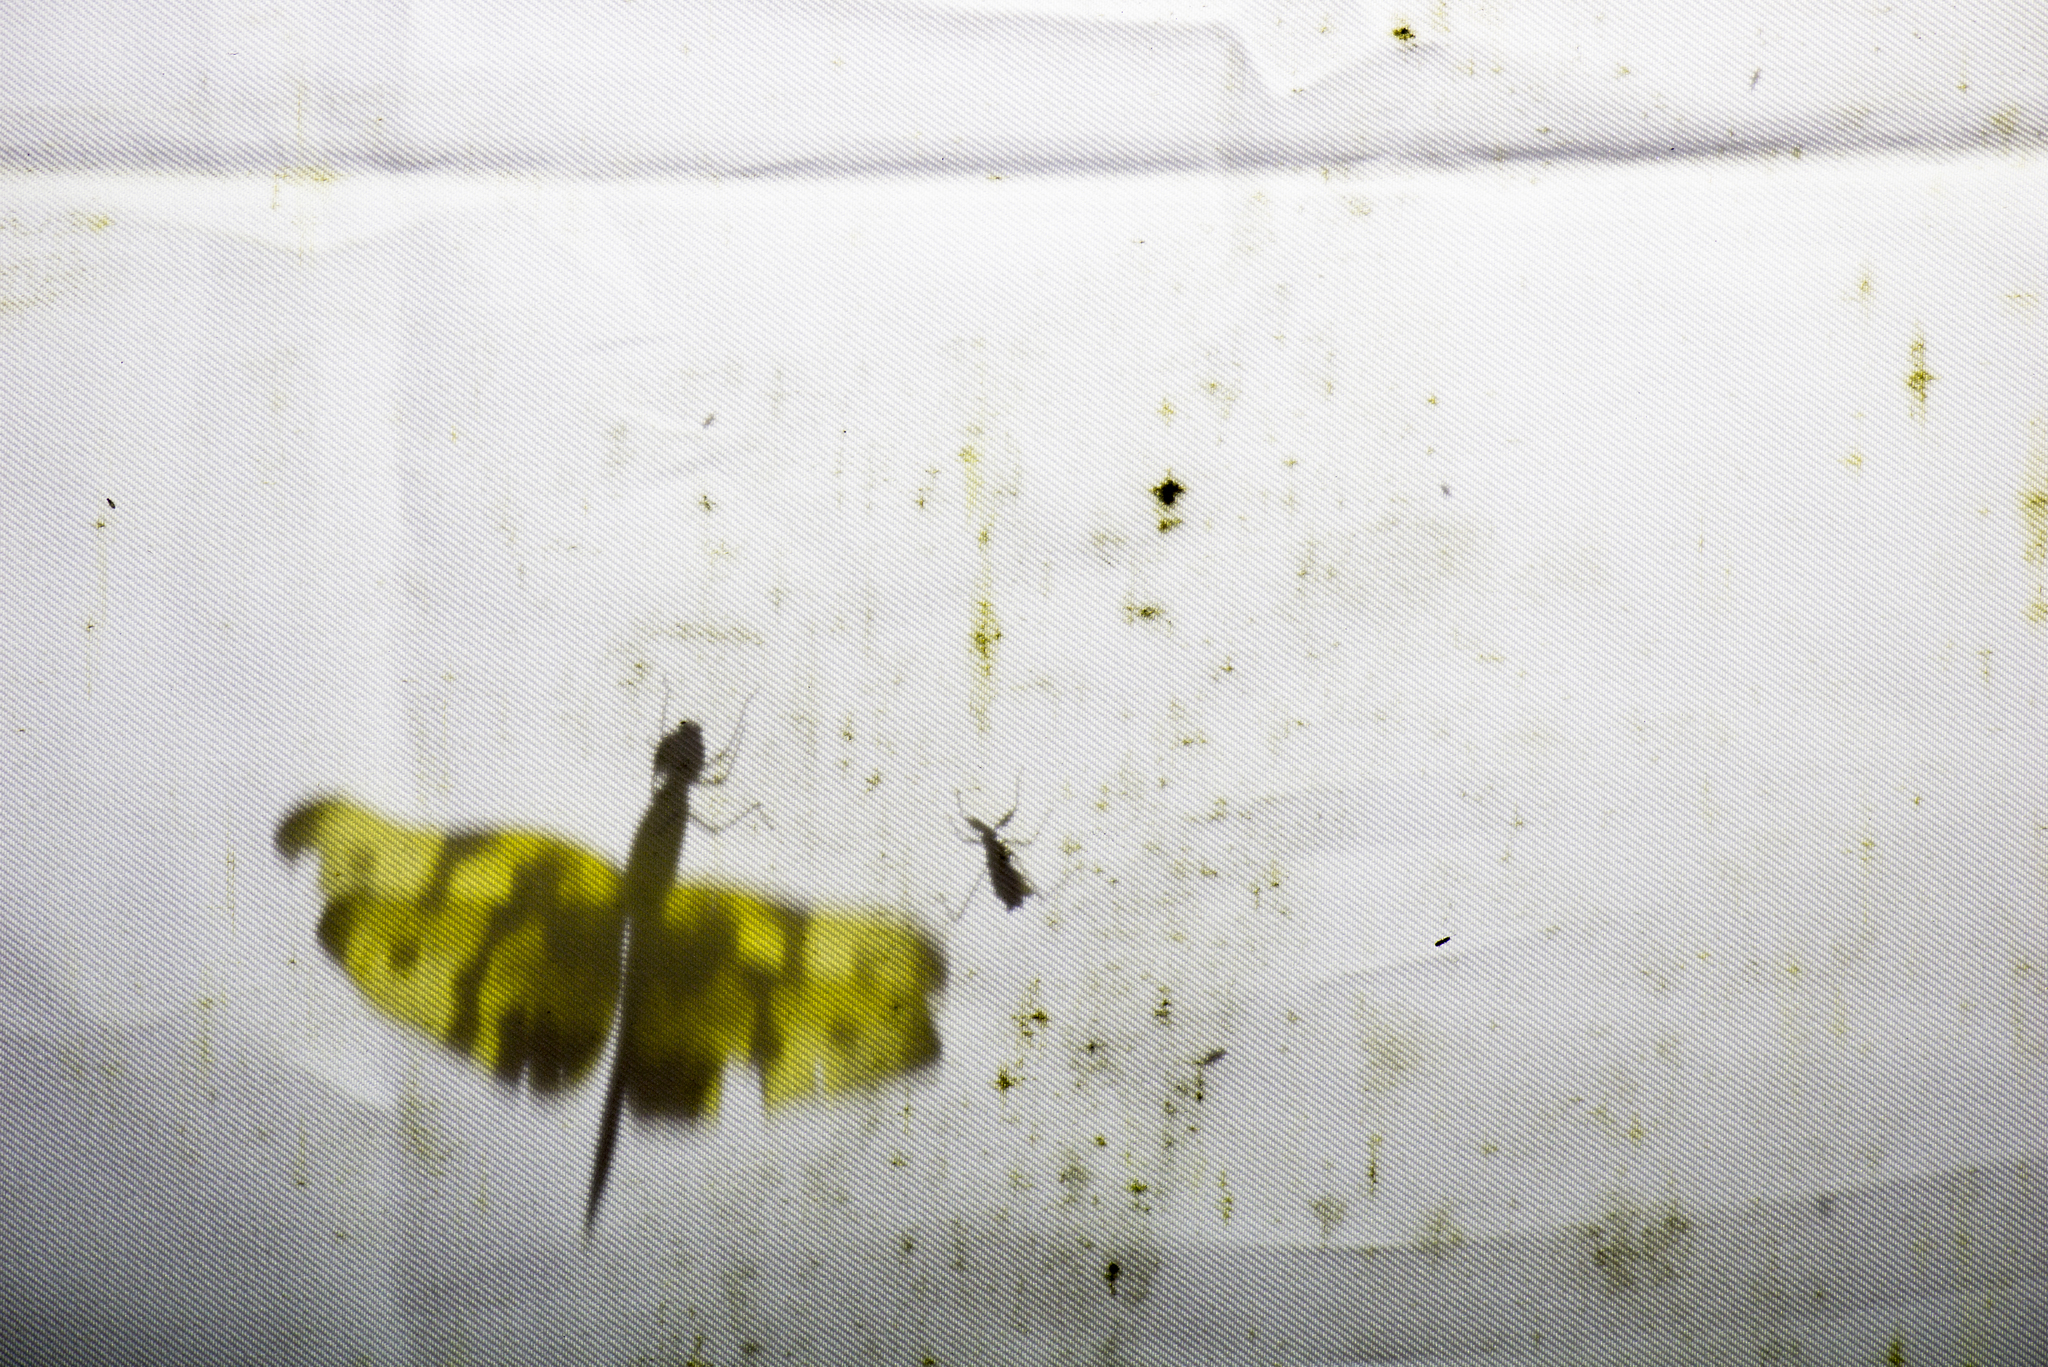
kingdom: Animalia
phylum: Arthropoda
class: Insecta
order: Odonata
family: Libellulidae
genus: Rhyothemis
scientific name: Rhyothemis variegata
